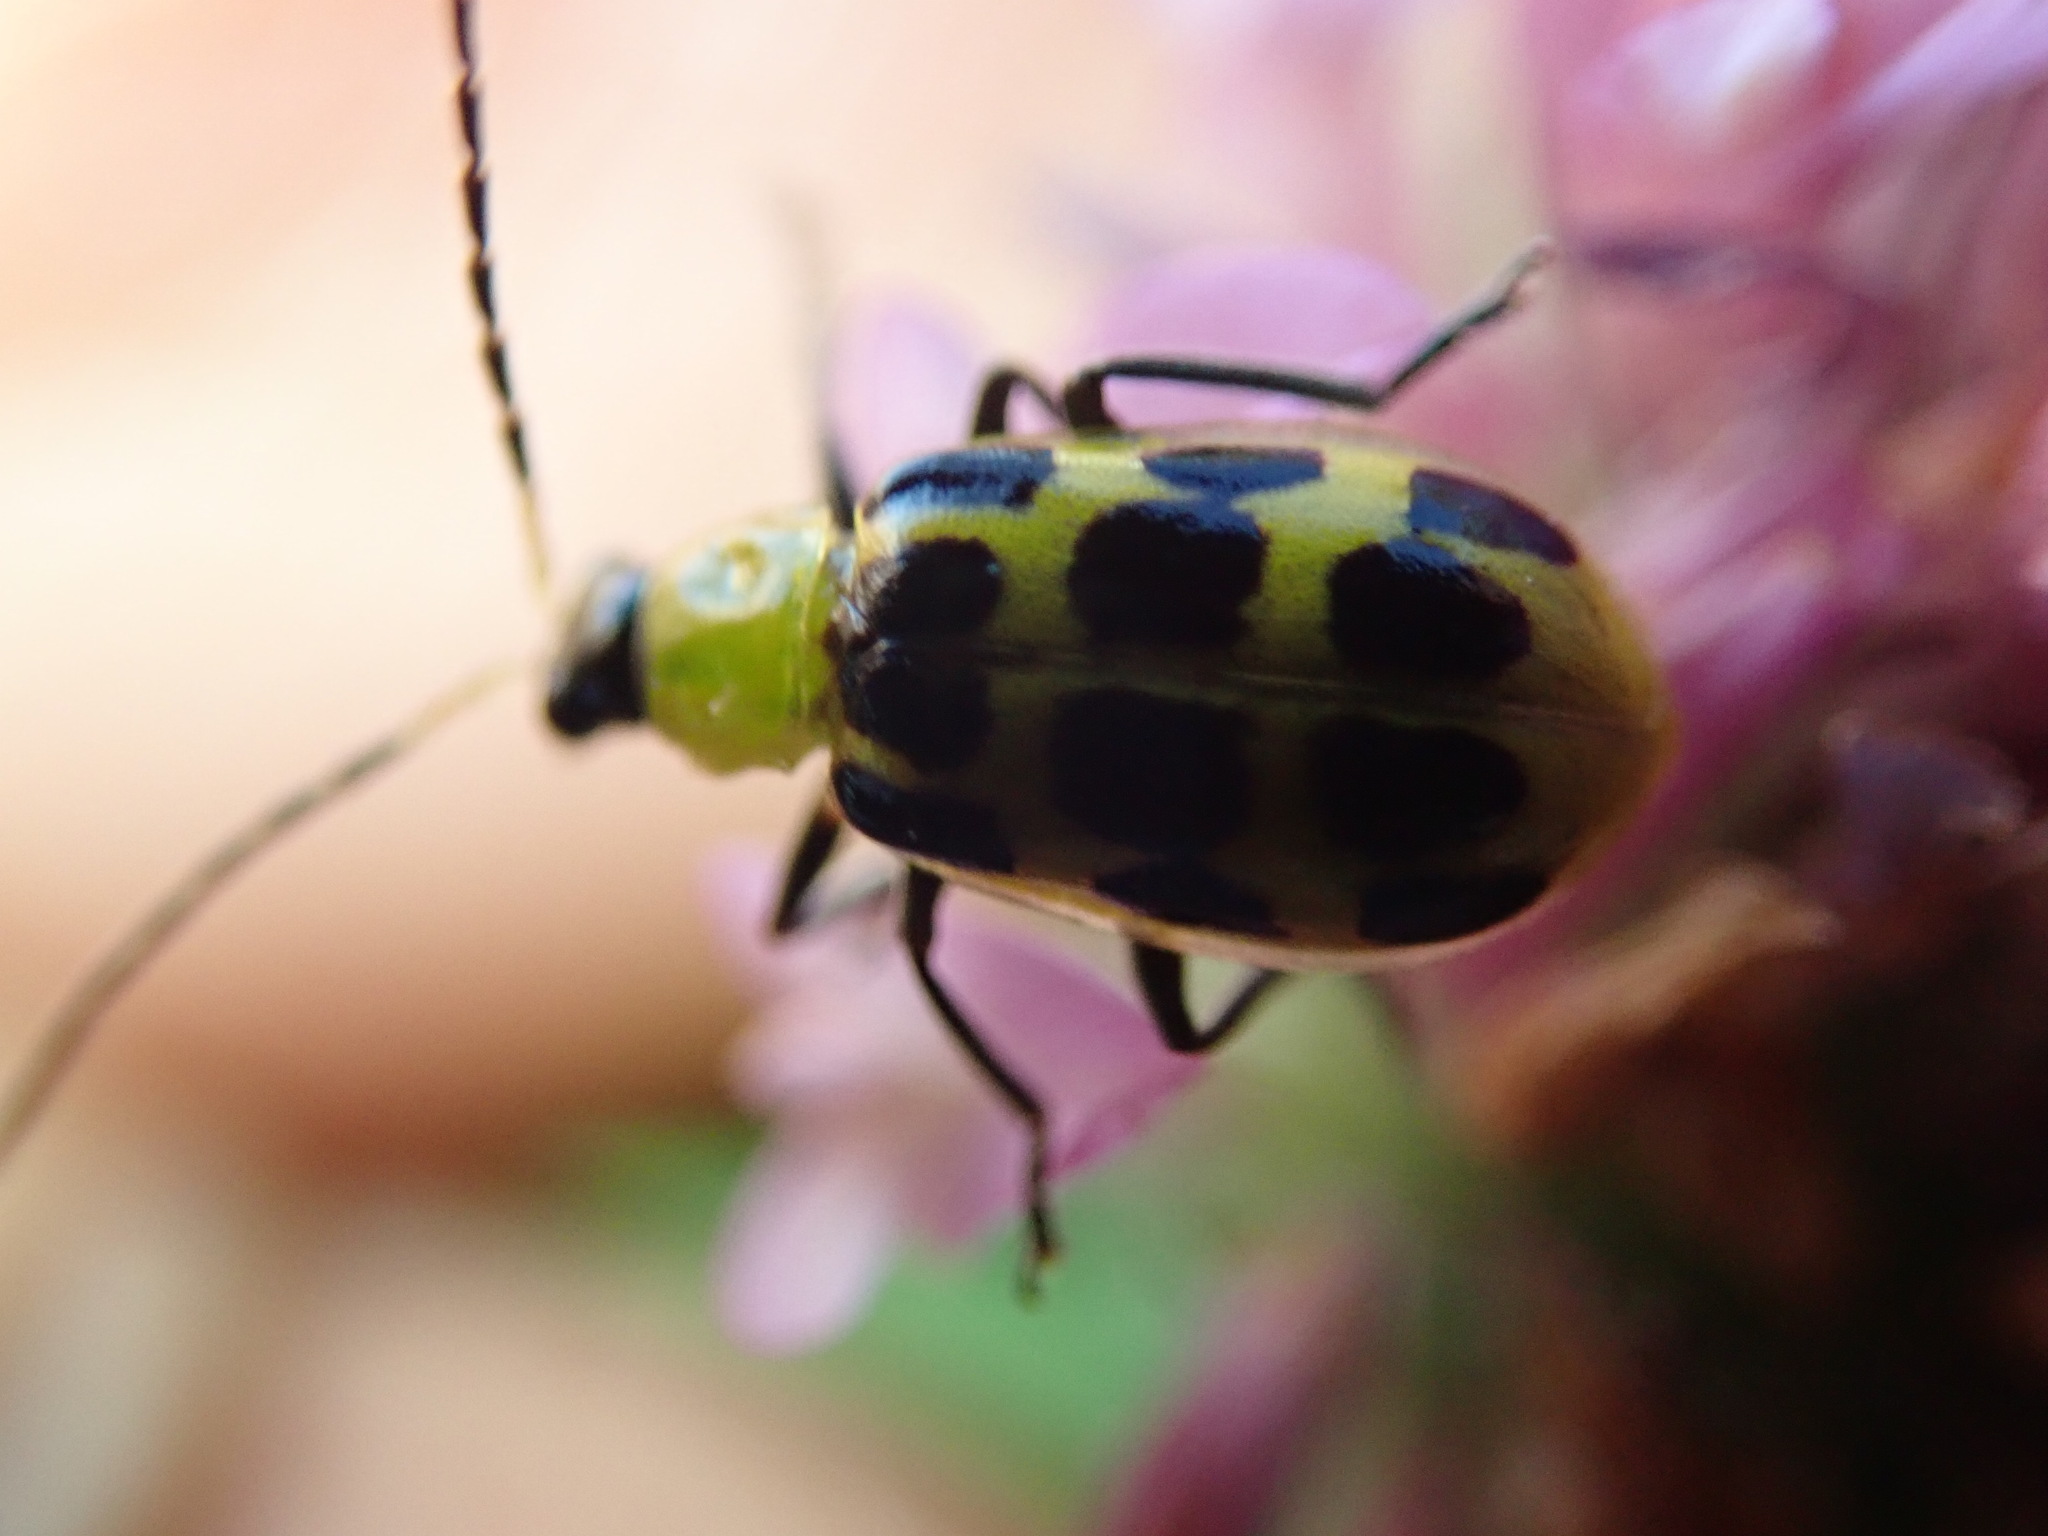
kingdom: Animalia
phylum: Arthropoda
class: Insecta
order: Coleoptera
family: Chrysomelidae
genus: Diabrotica
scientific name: Diabrotica undecimpunctata
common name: Spotted cucumber beetle
